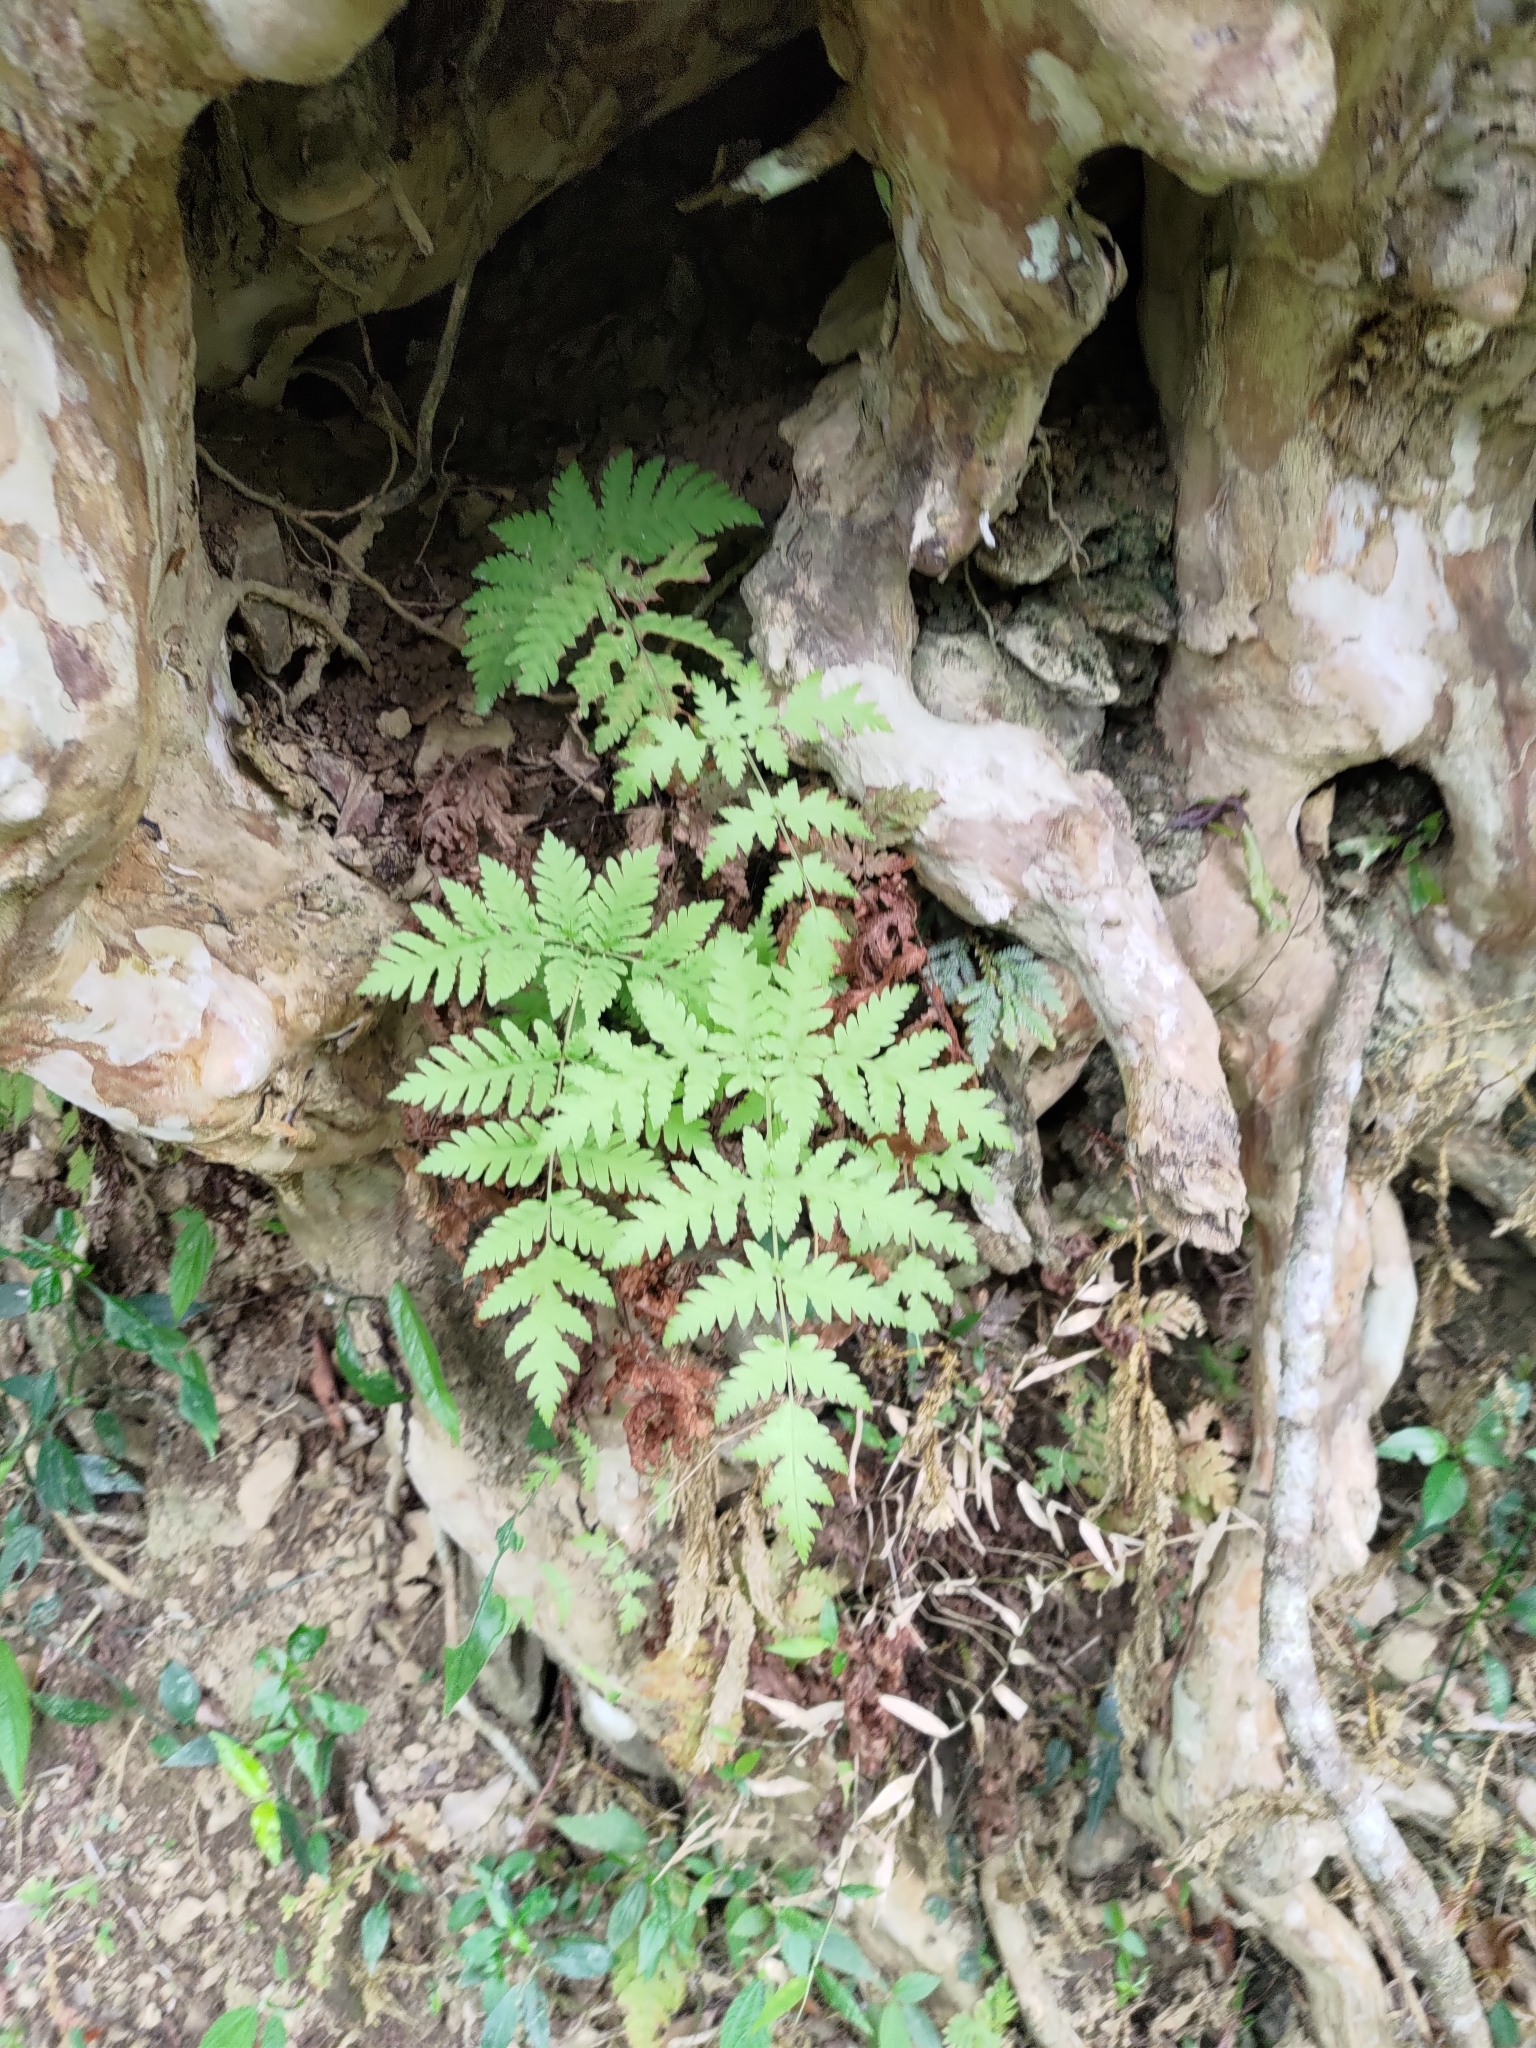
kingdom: Plantae
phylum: Tracheophyta
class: Polypodiopsida
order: Polypodiales
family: Tectariaceae
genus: Tectaria
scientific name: Tectaria membranacea
